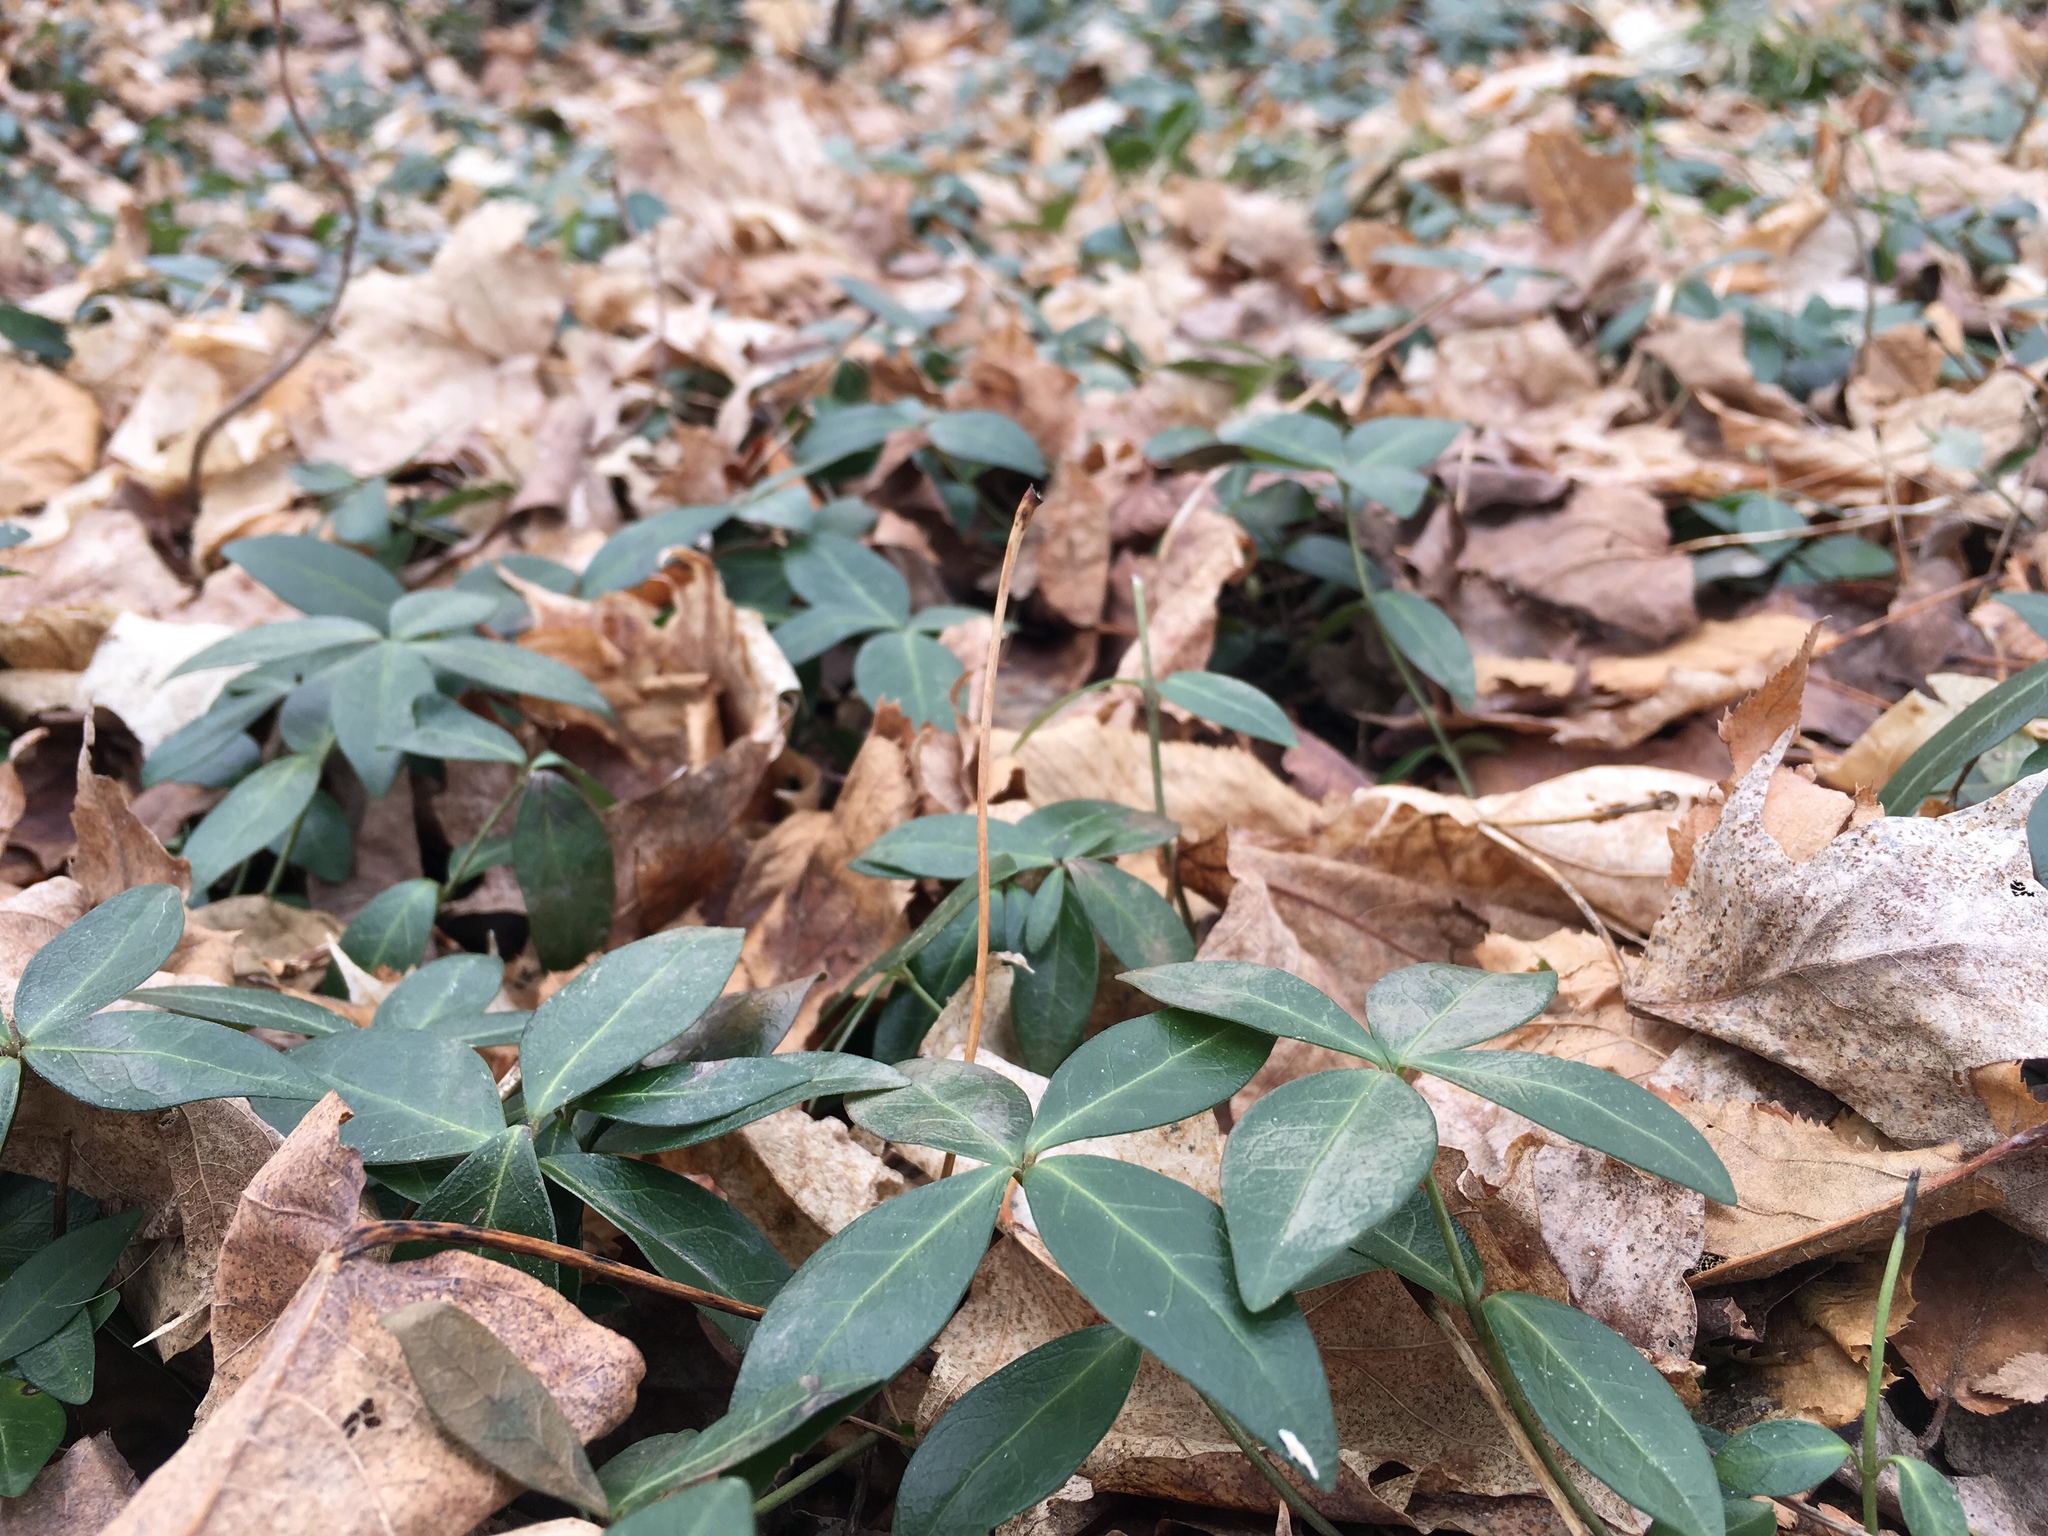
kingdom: Plantae
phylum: Tracheophyta
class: Magnoliopsida
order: Gentianales
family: Apocynaceae
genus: Vinca
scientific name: Vinca minor
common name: Lesser periwinkle
